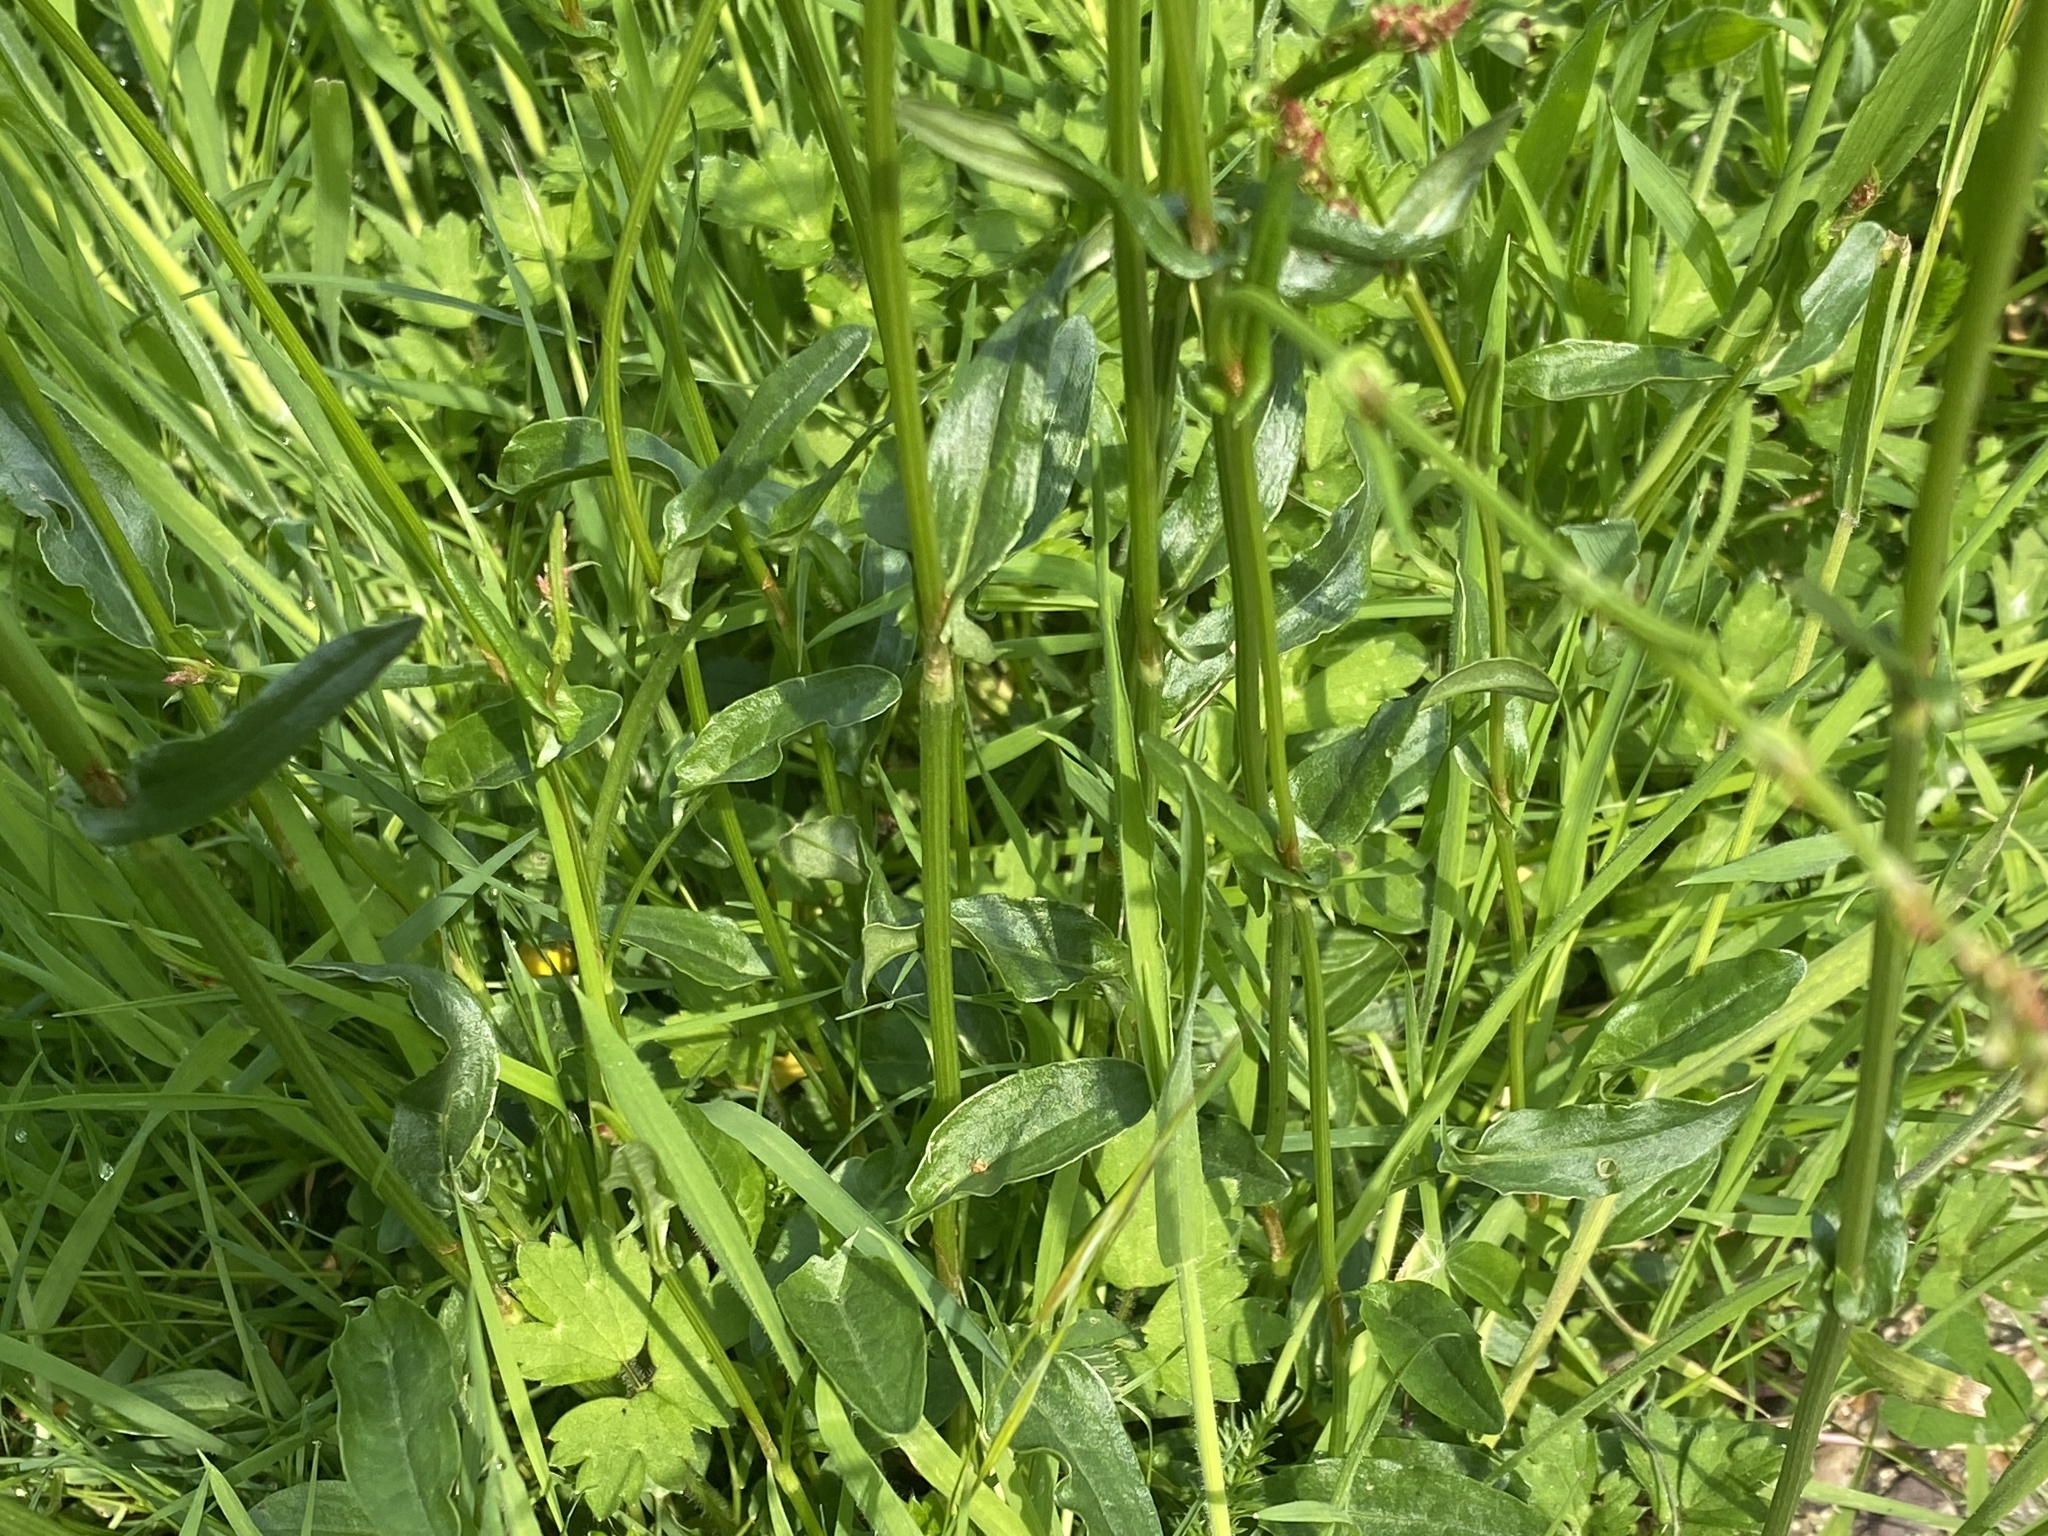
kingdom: Plantae
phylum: Tracheophyta
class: Magnoliopsida
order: Caryophyllales
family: Polygonaceae
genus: Rumex
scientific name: Rumex acetosa
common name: Garden sorrel
